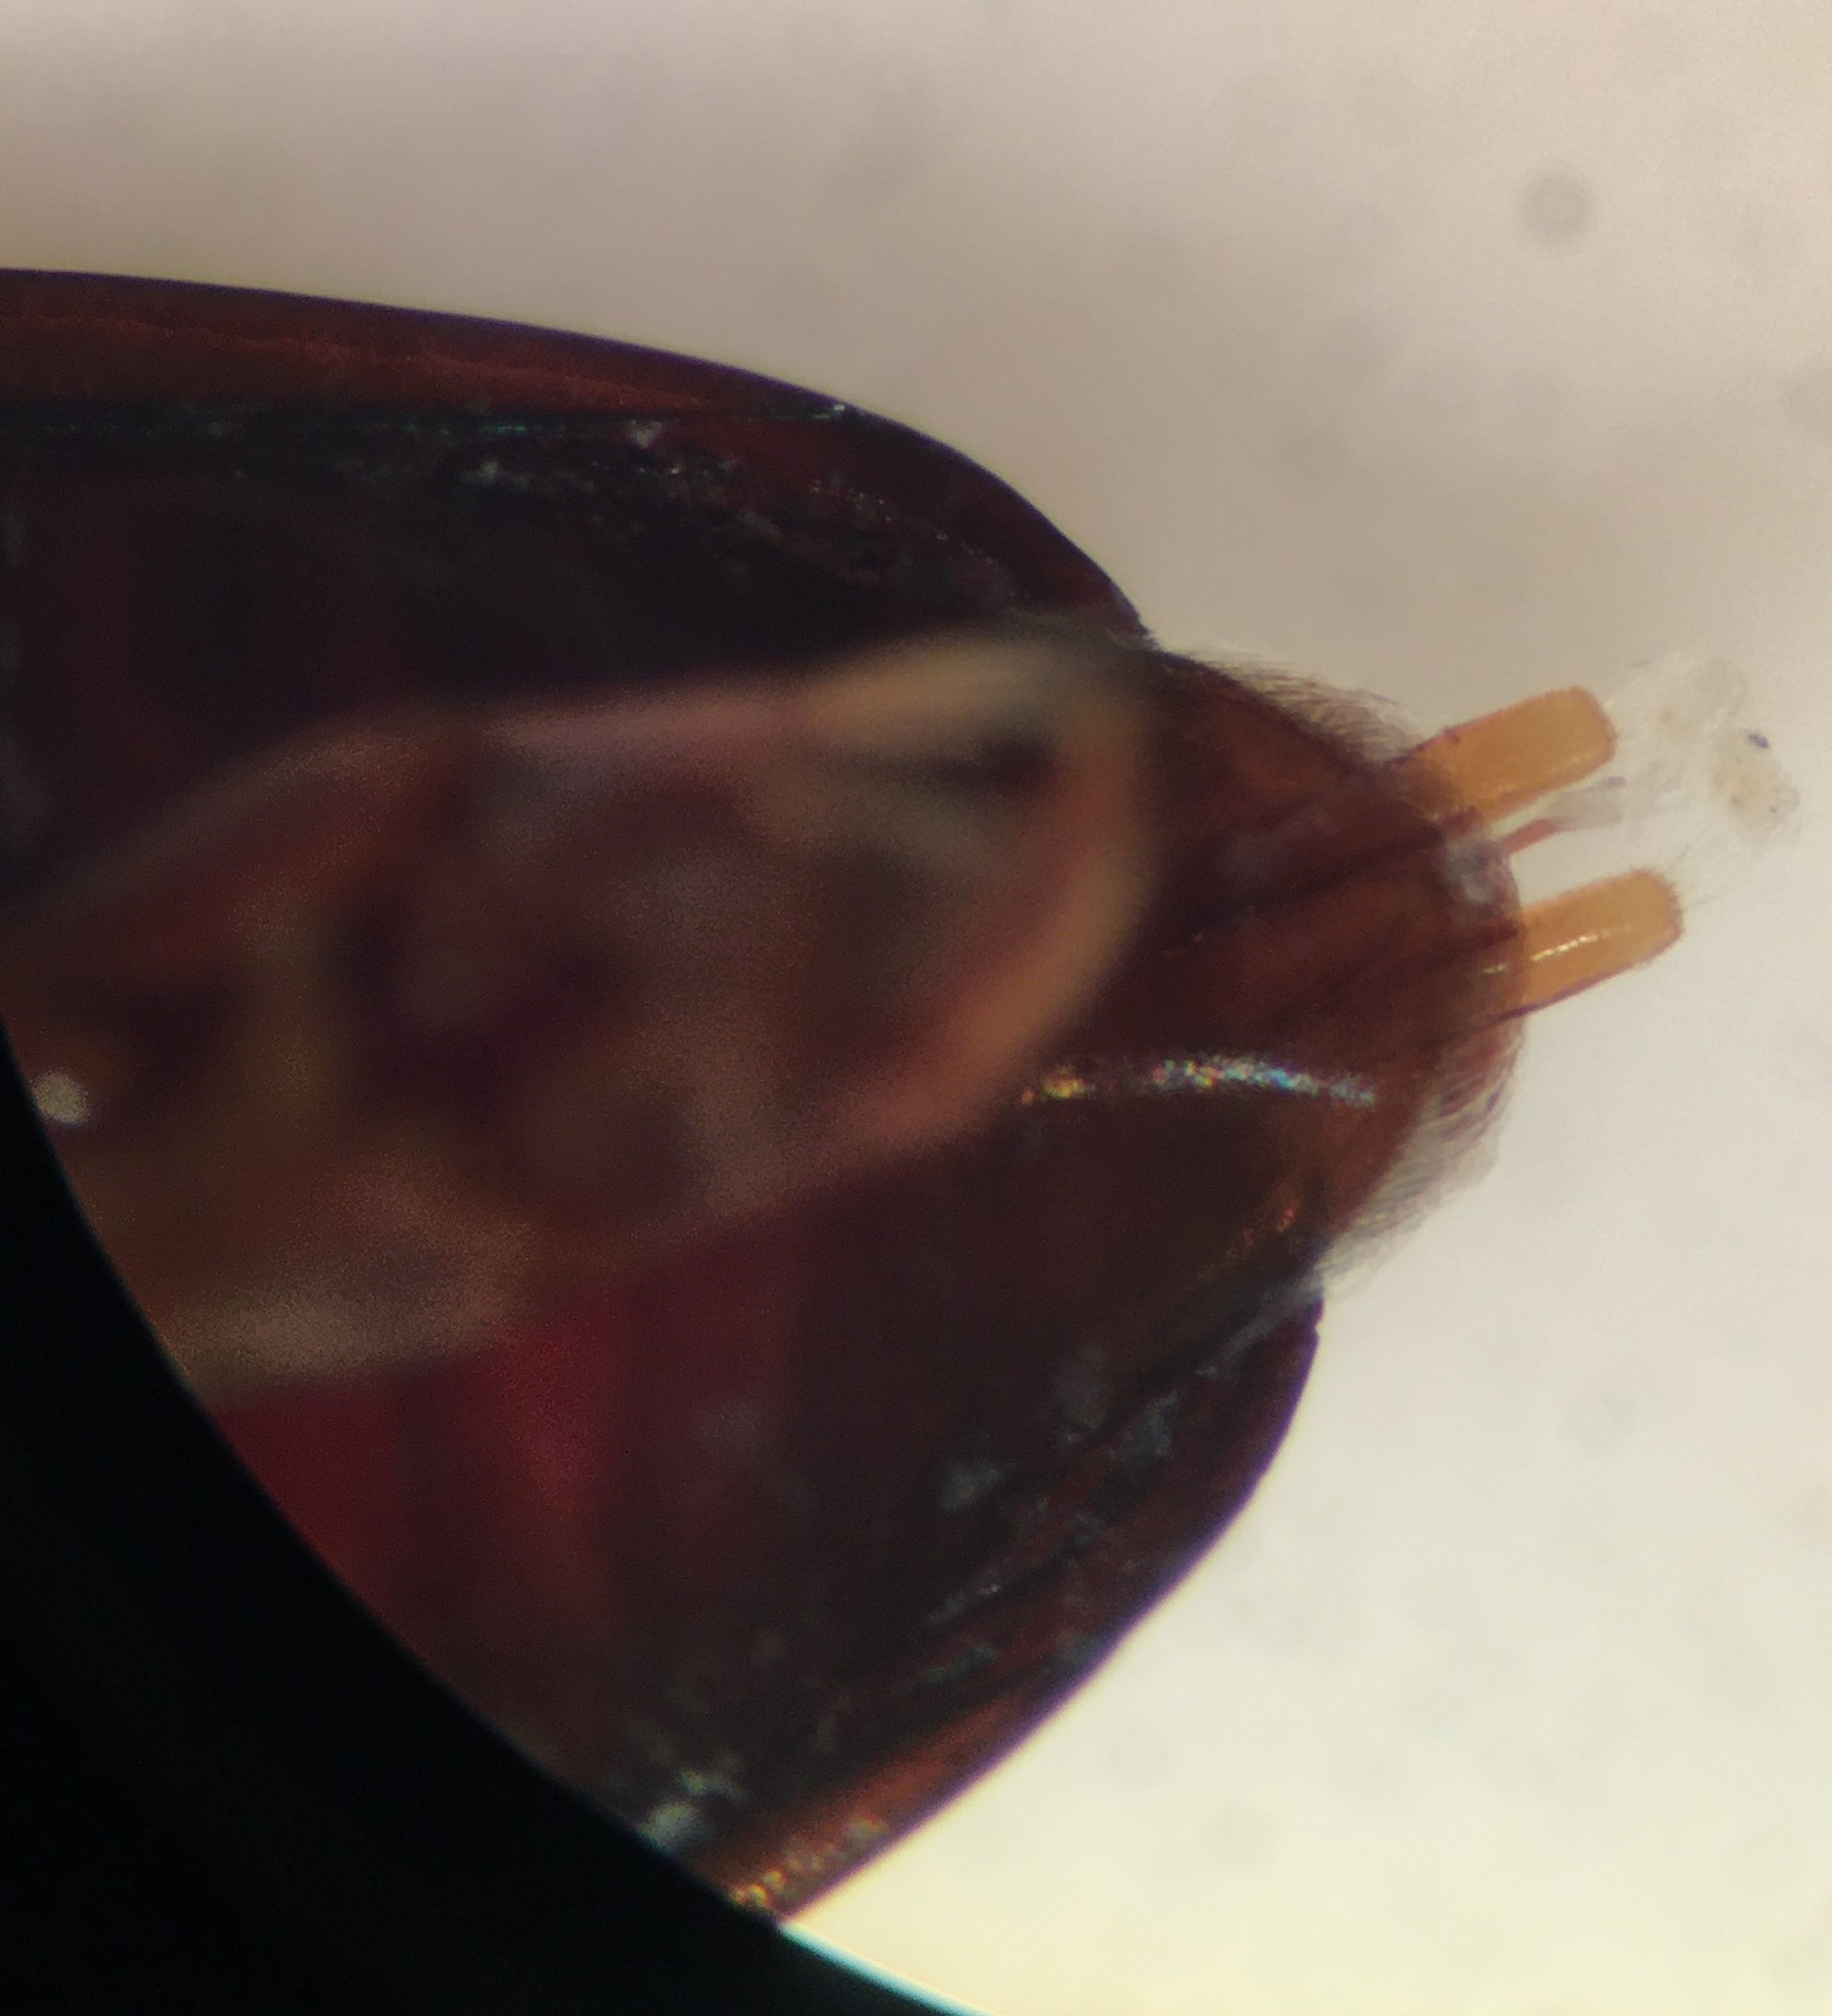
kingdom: Animalia
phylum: Arthropoda
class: Insecta
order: Coleoptera
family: Gyrinidae
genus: Gyrinus
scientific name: Gyrinus elevatus
